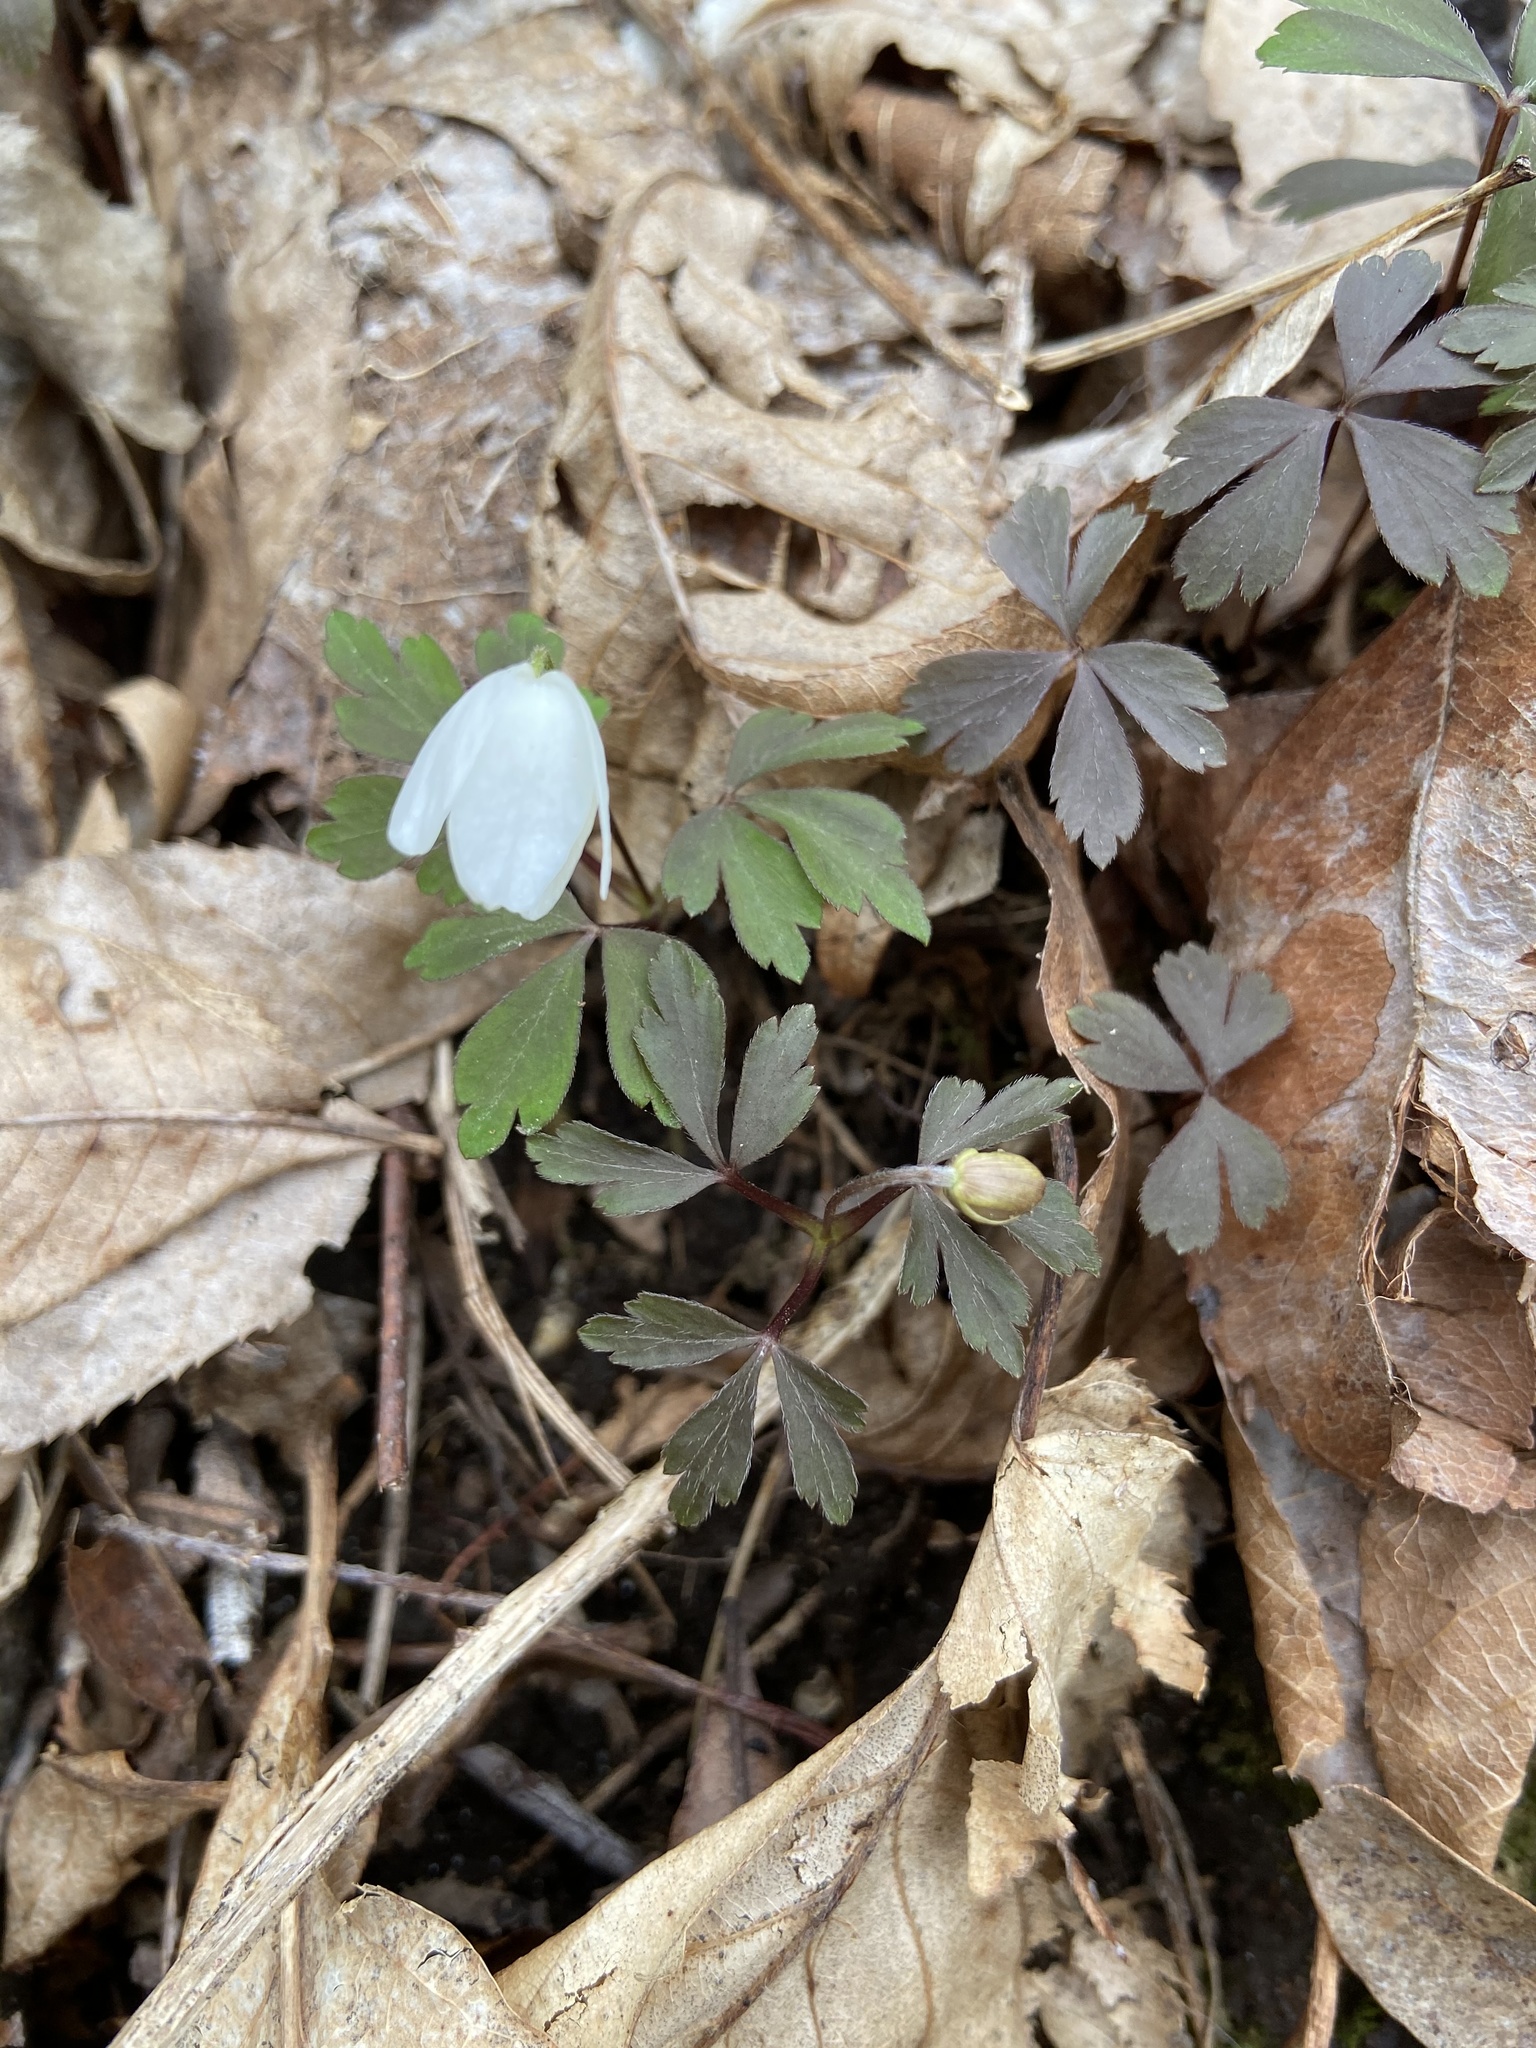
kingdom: Plantae
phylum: Tracheophyta
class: Magnoliopsida
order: Ranunculales
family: Ranunculaceae
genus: Anemone
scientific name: Anemone nemorosa
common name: Wood anemone
